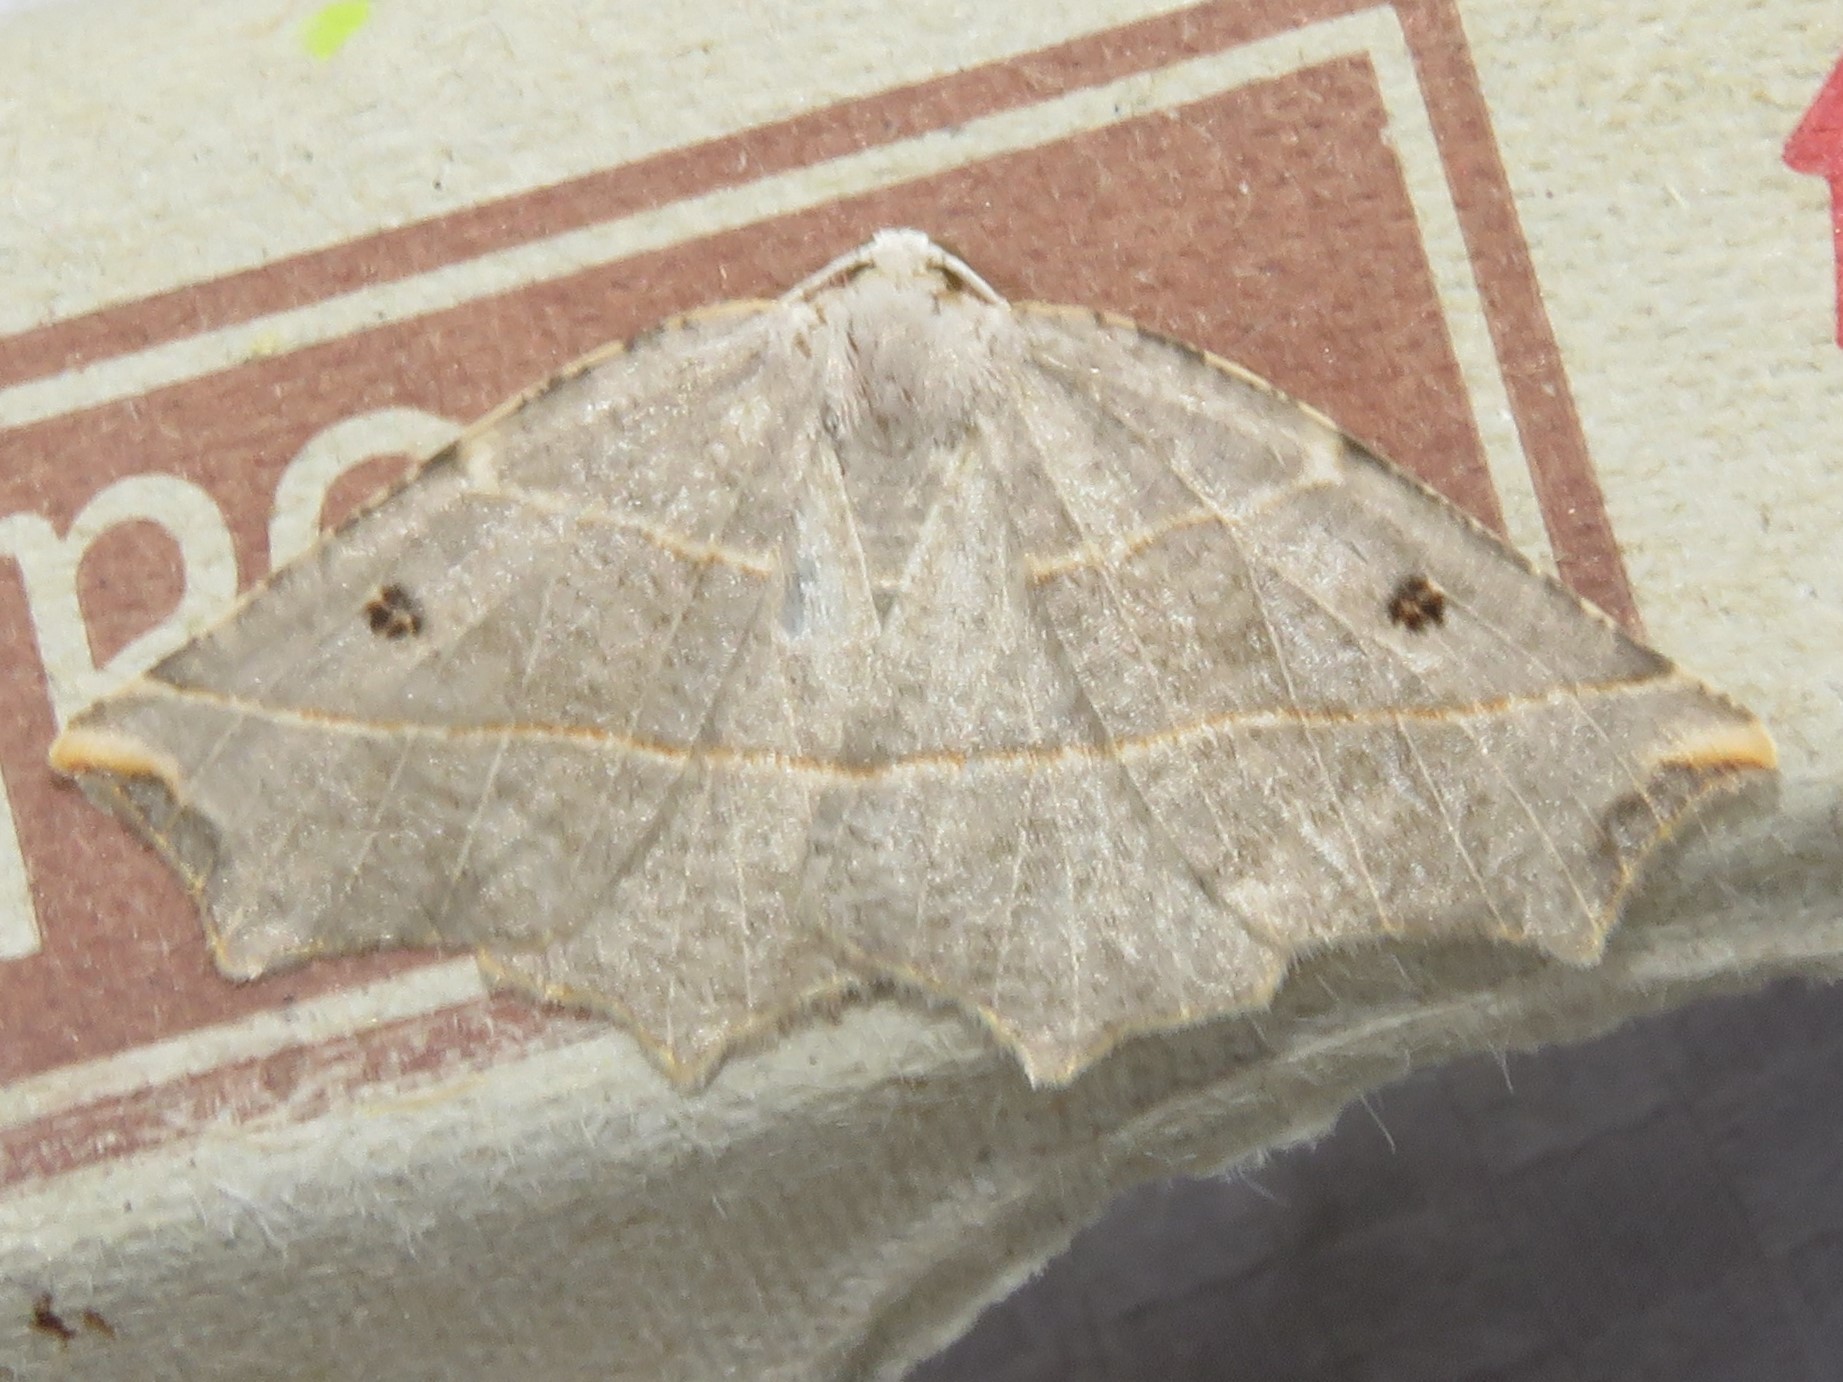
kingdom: Animalia
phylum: Arthropoda
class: Insecta
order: Lepidoptera
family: Geometridae
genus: Metanema
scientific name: Metanema inatomaria
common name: Pale metanema
